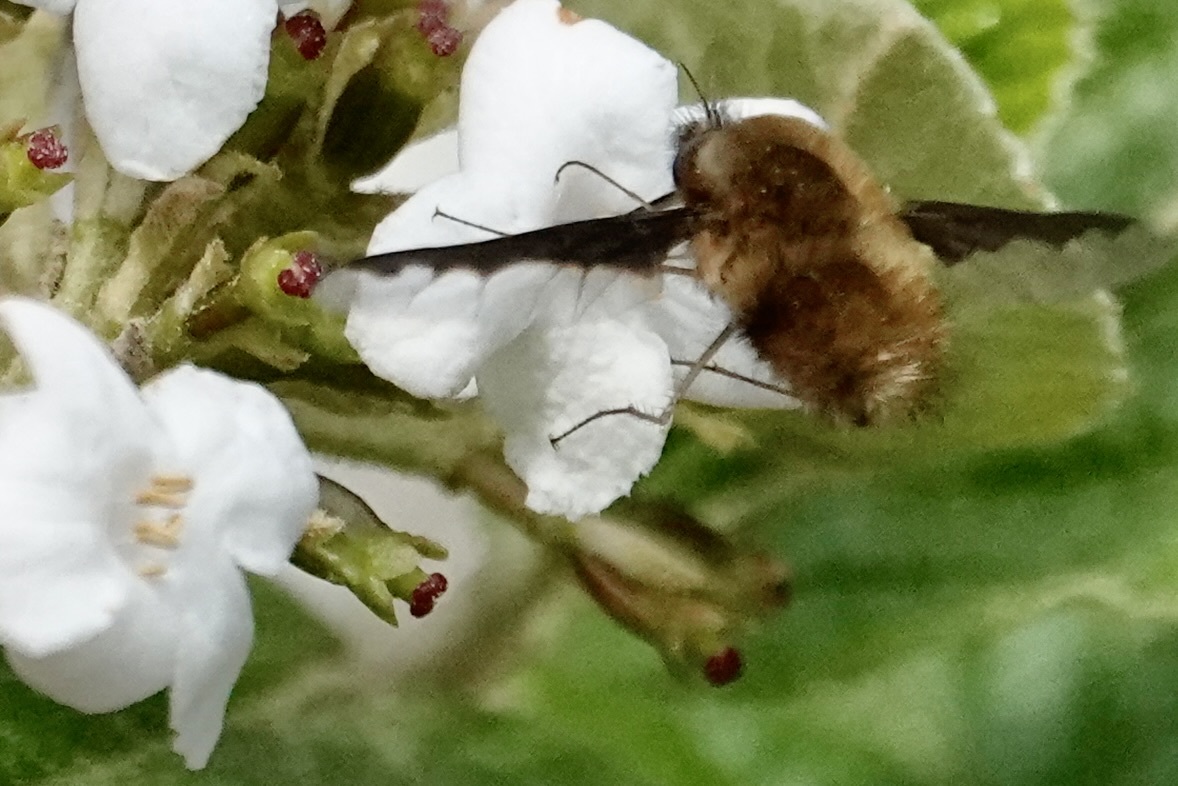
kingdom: Animalia
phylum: Arthropoda
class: Insecta
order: Diptera
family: Bombyliidae
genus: Bombylius
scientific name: Bombylius major
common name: Bee fly
